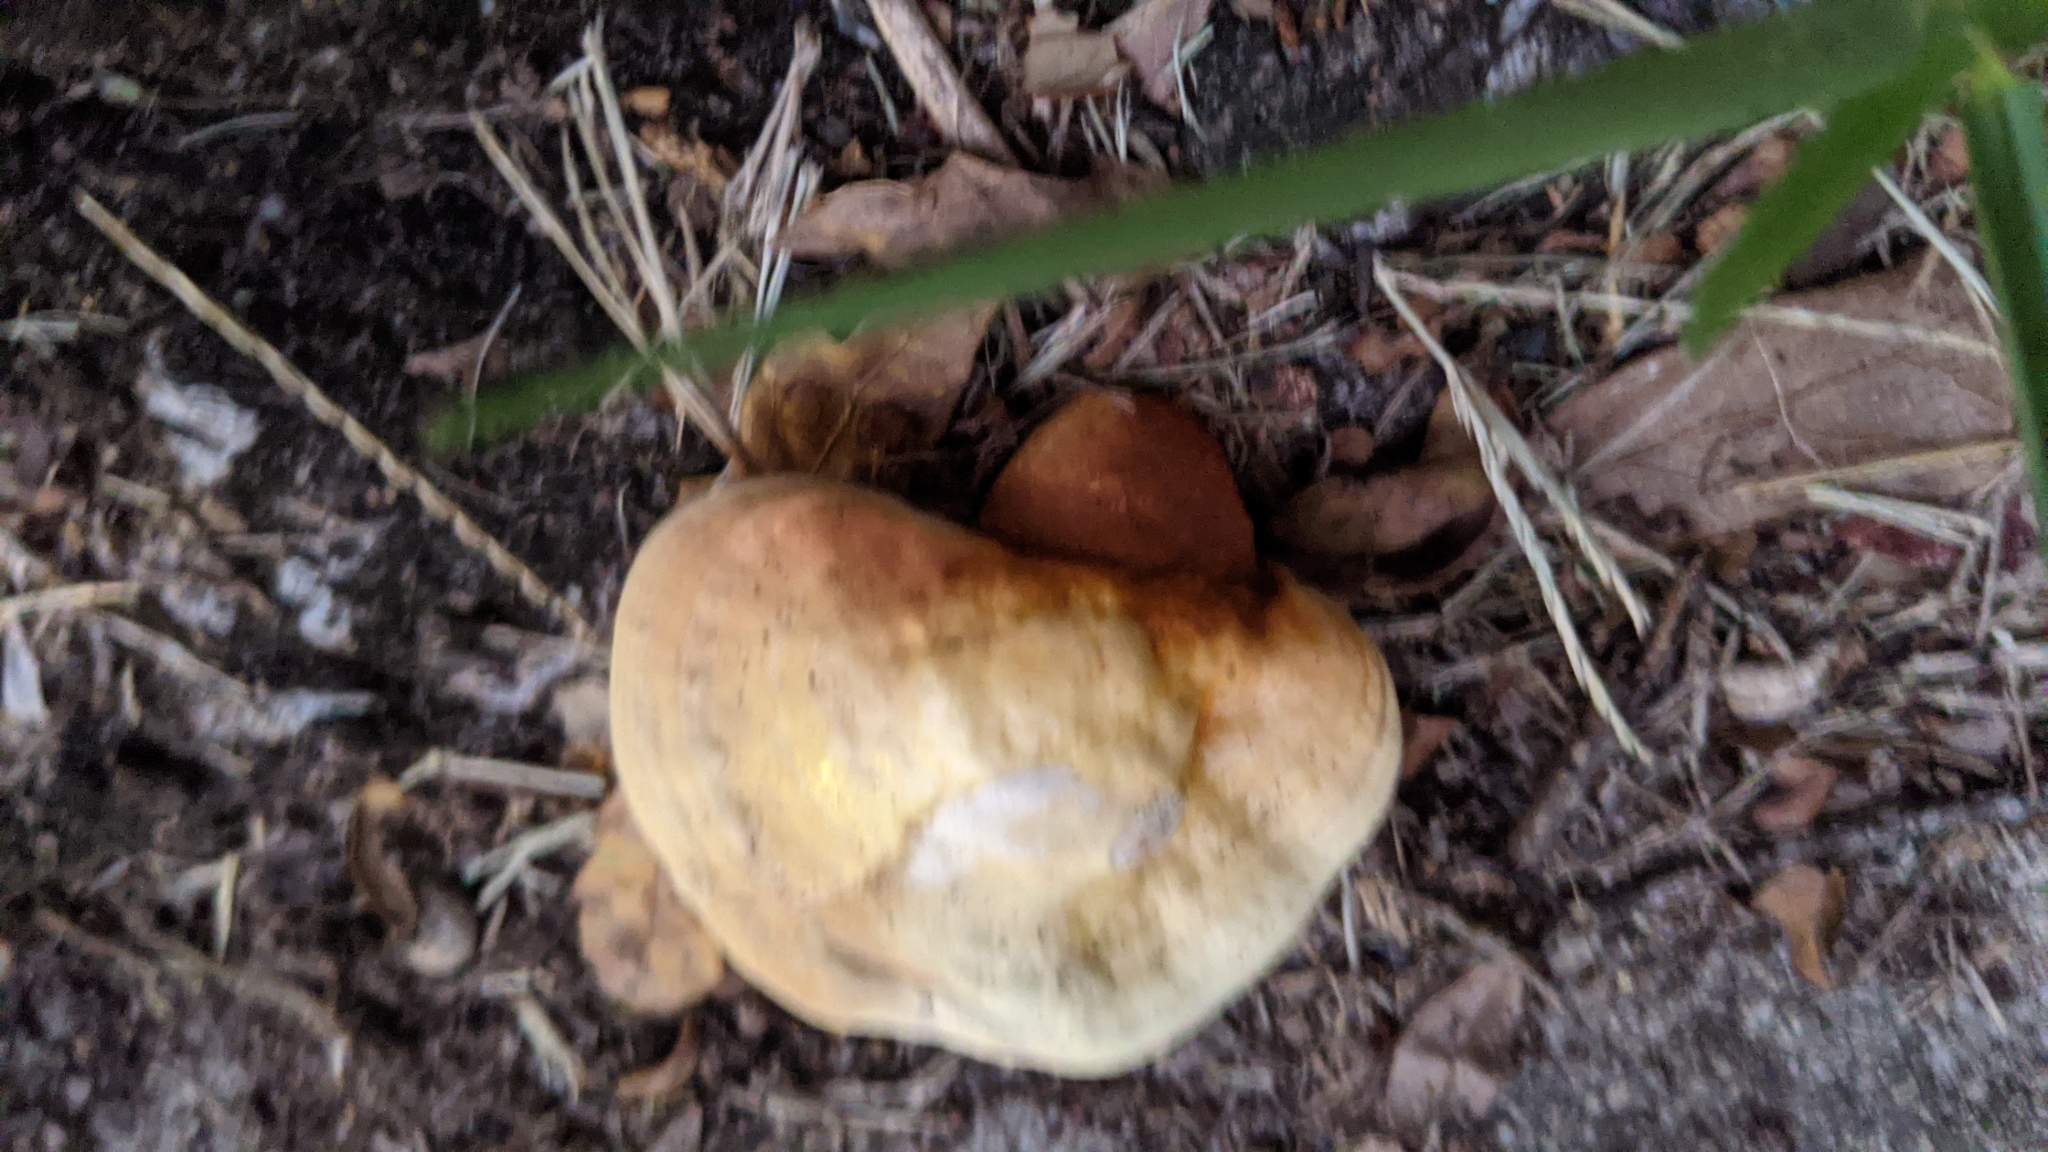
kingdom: Fungi
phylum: Basidiomycota
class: Agaricomycetes
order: Polyporales
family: Polyporaceae
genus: Ganoderma
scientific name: Ganoderma curtisii
